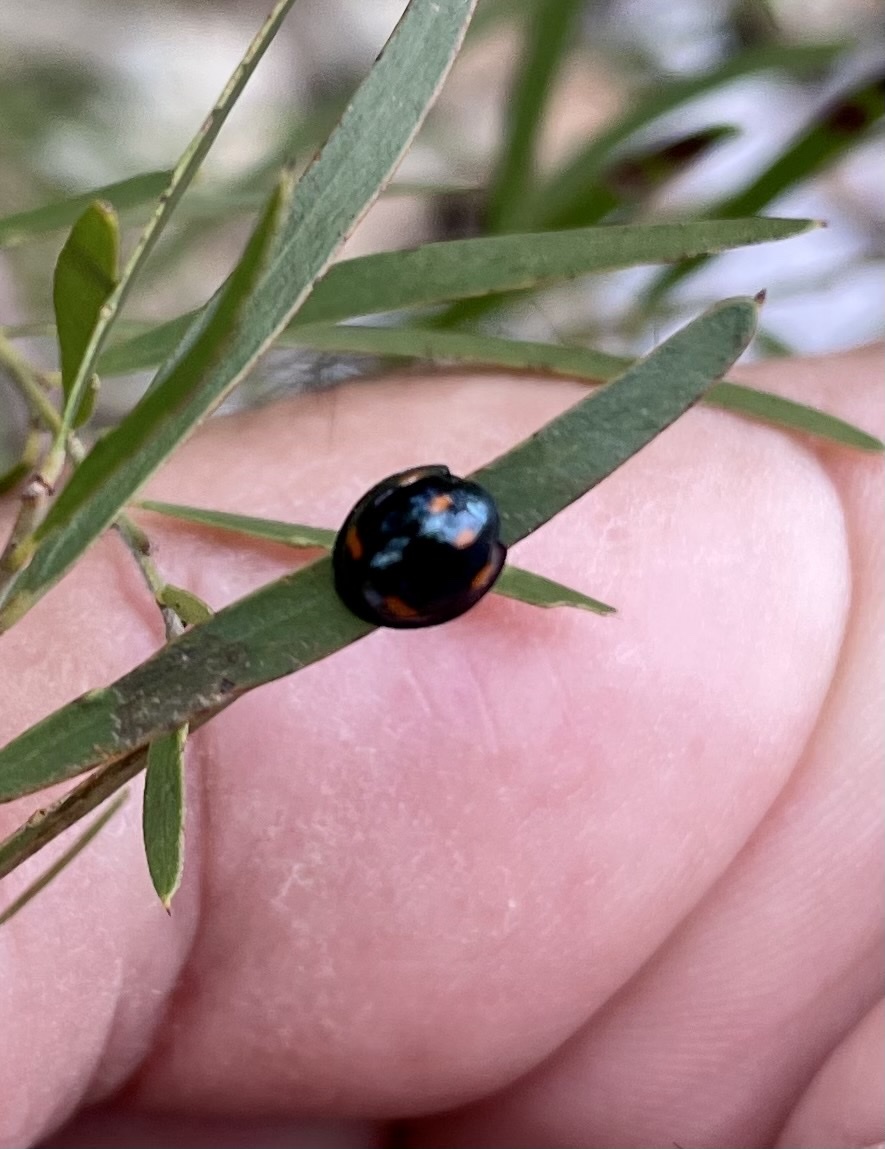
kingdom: Animalia
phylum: Arthropoda
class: Insecta
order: Coleoptera
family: Coccinellidae
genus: Orcus
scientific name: Orcus australasiae
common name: Lady beetle
